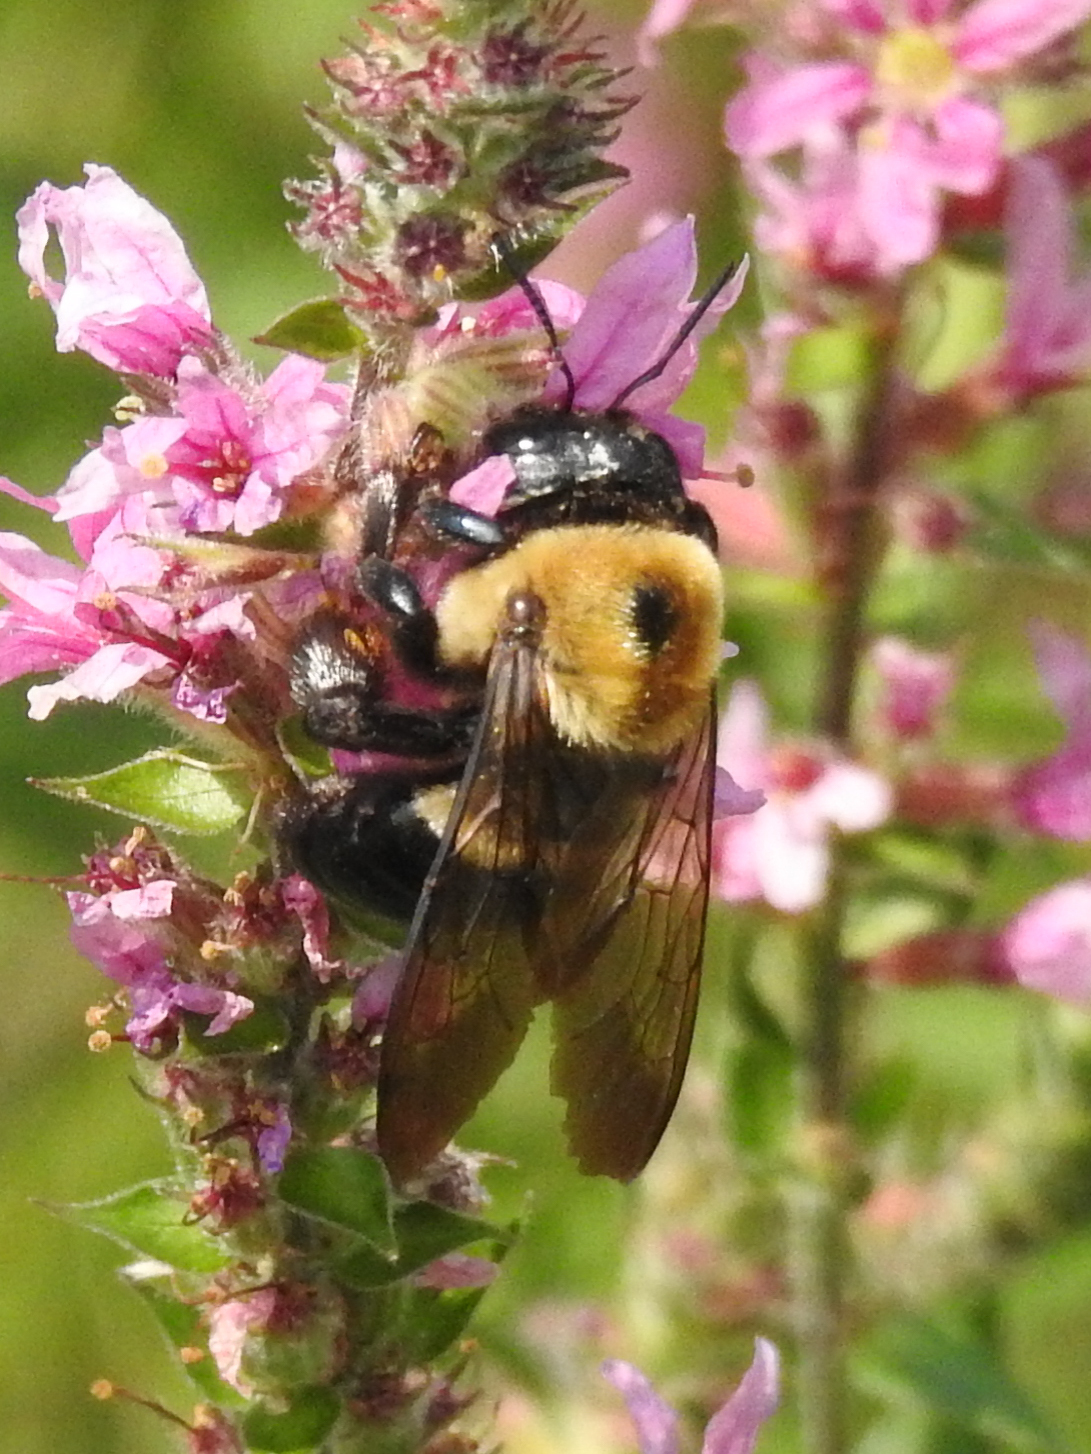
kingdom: Animalia
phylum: Arthropoda
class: Insecta
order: Hymenoptera
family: Apidae
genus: Xylocopa
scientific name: Xylocopa virginica
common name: Carpenter bee
